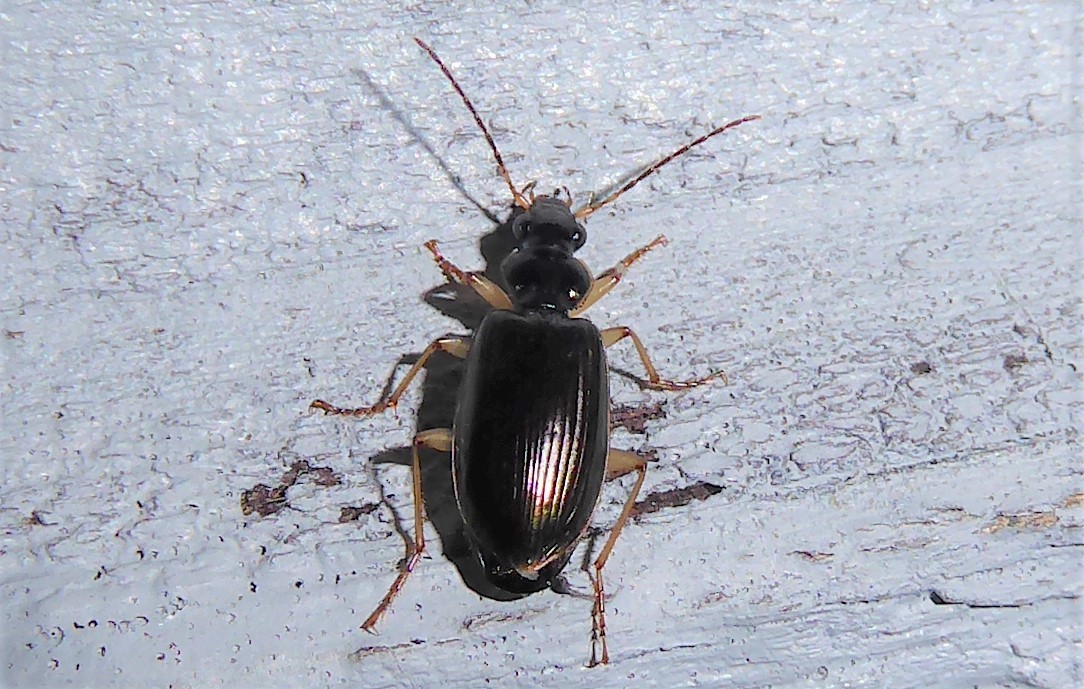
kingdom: Animalia
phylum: Arthropoda
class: Insecta
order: Coleoptera
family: Carabidae
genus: Notagonum
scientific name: Notagonum submetallicum
